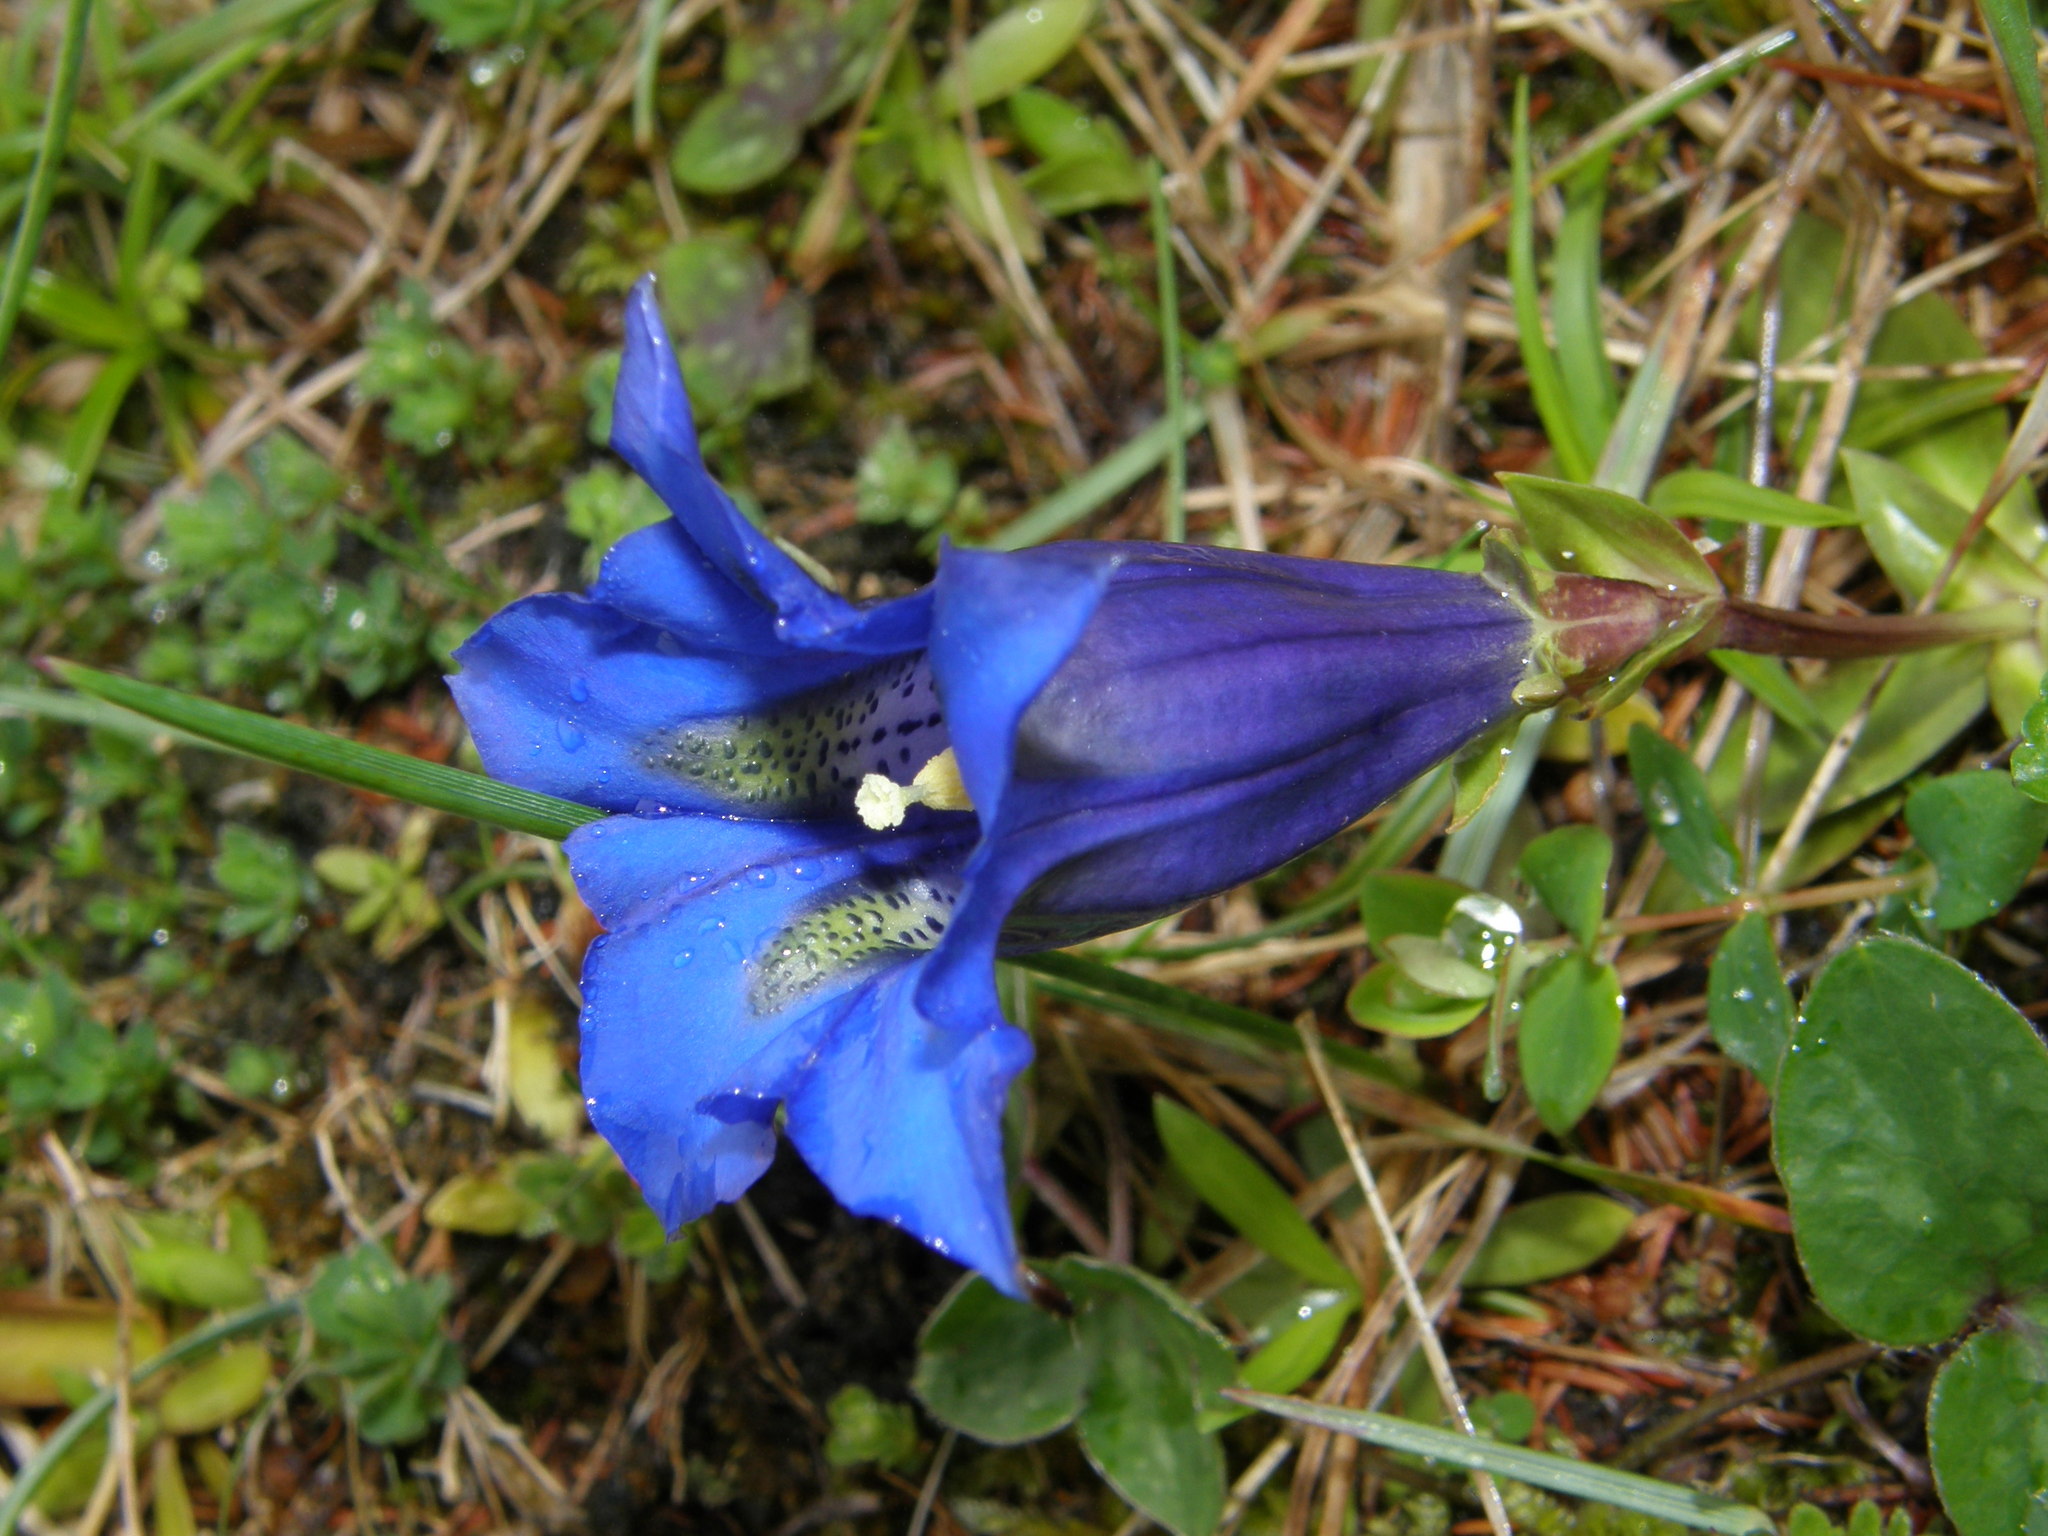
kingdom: Plantae
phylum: Tracheophyta
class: Magnoliopsida
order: Gentianales
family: Gentianaceae
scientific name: Gentianaceae
